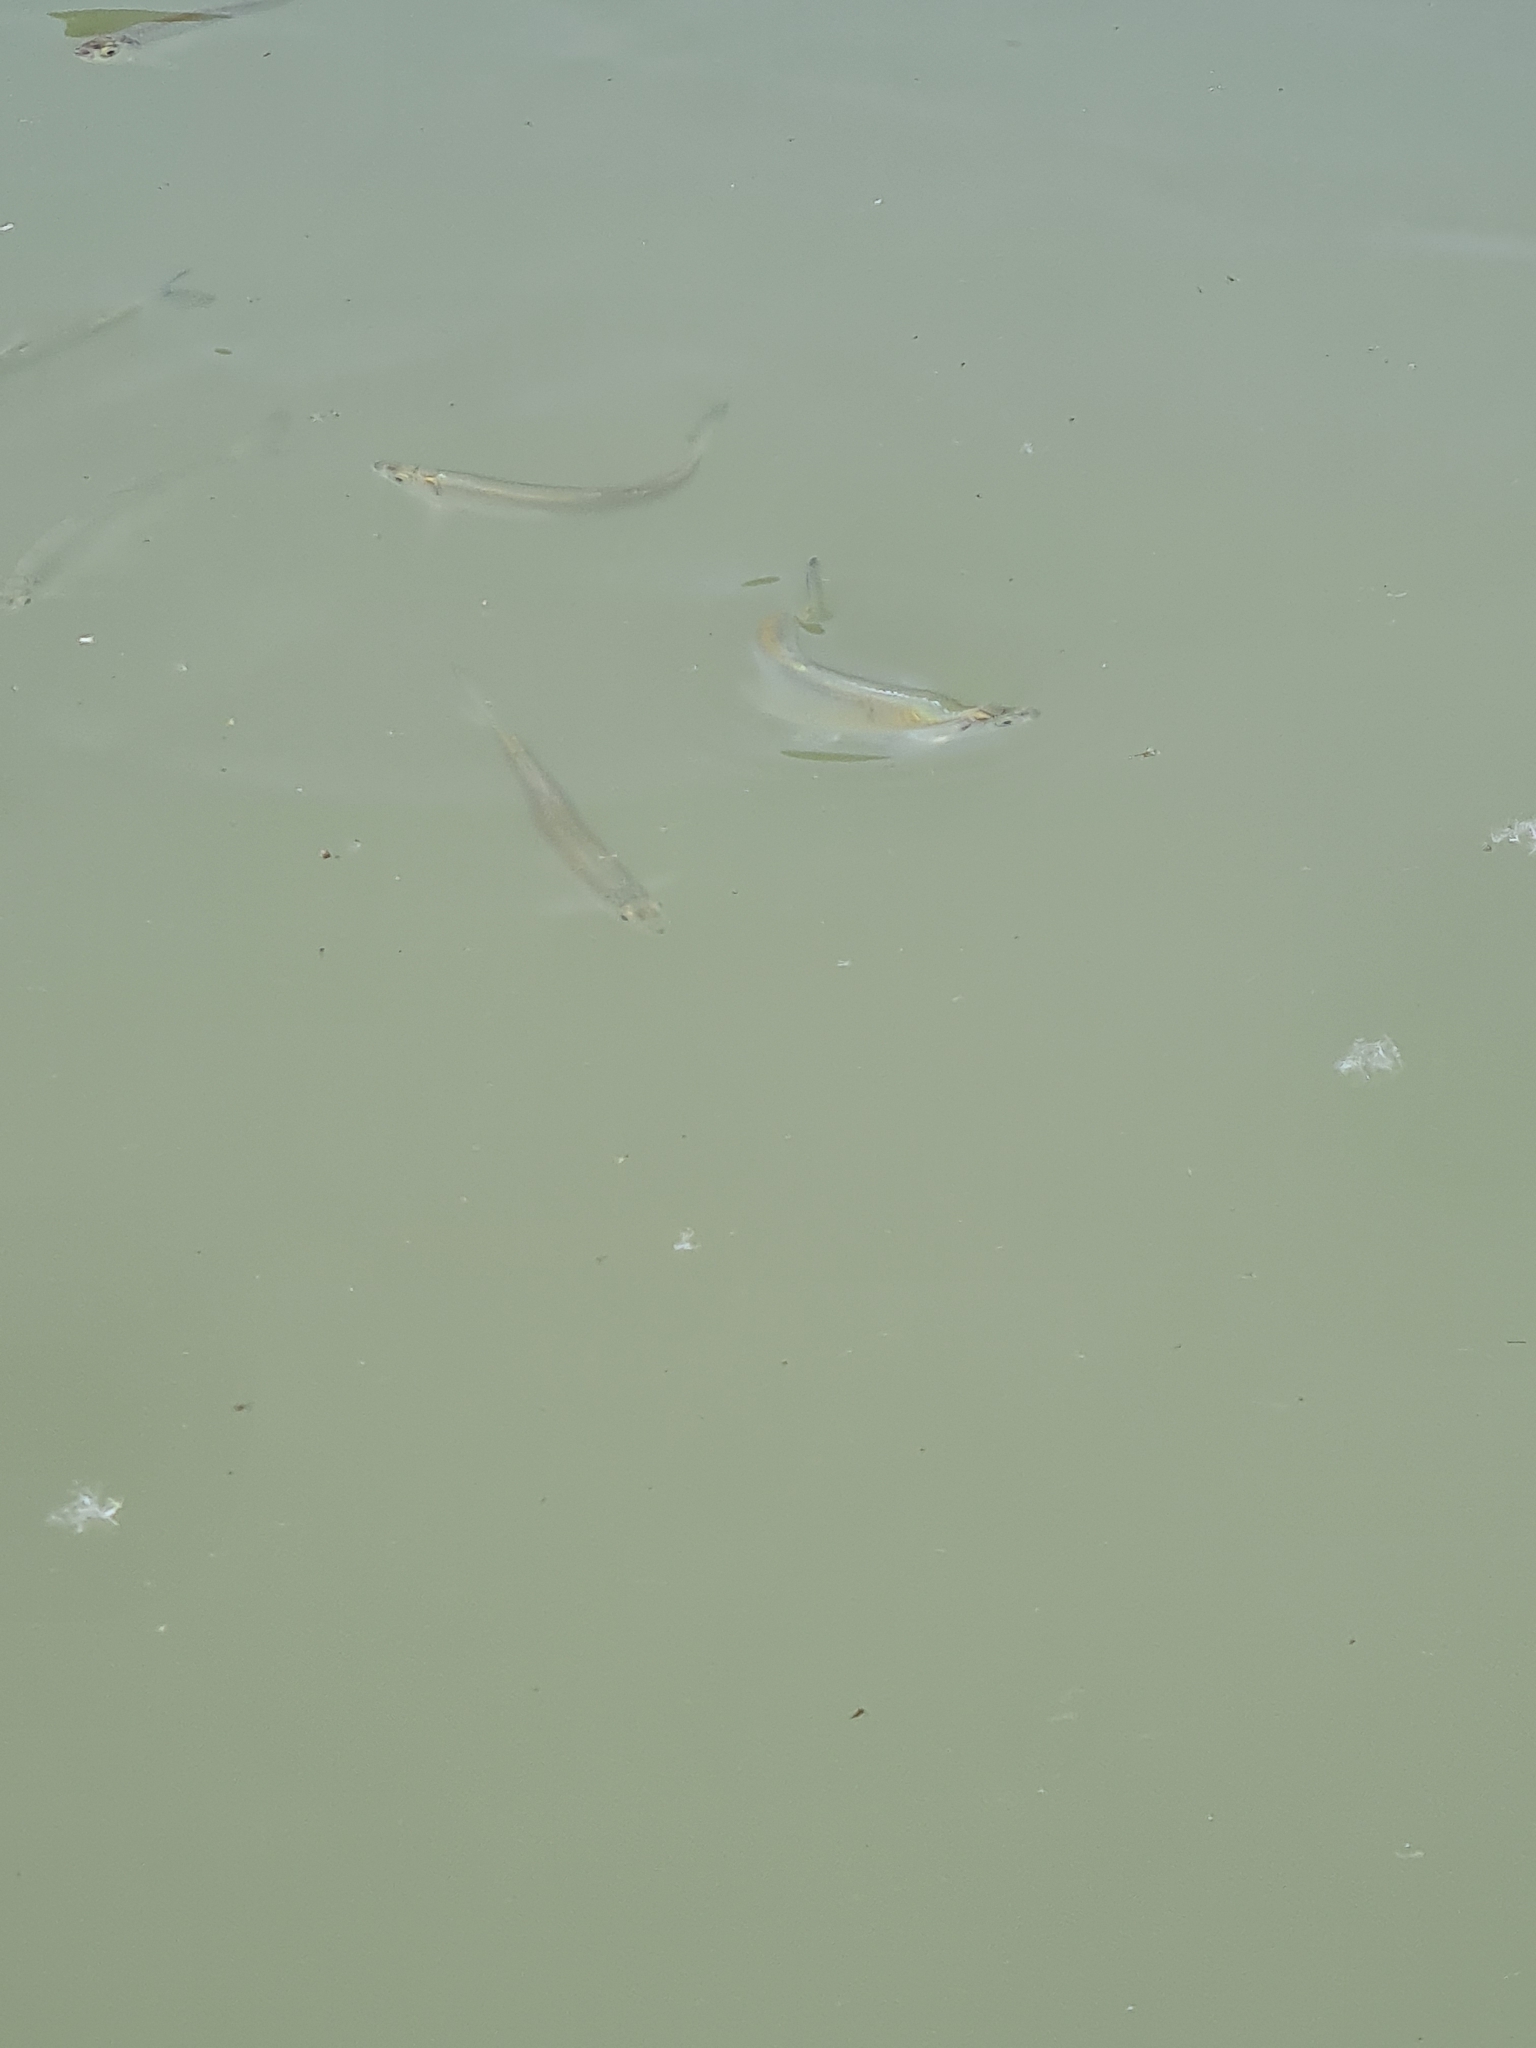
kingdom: Animalia
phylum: Chordata
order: Cypriniformes
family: Cyprinidae
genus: Alburnus
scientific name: Alburnus alburnus
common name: Bleak
